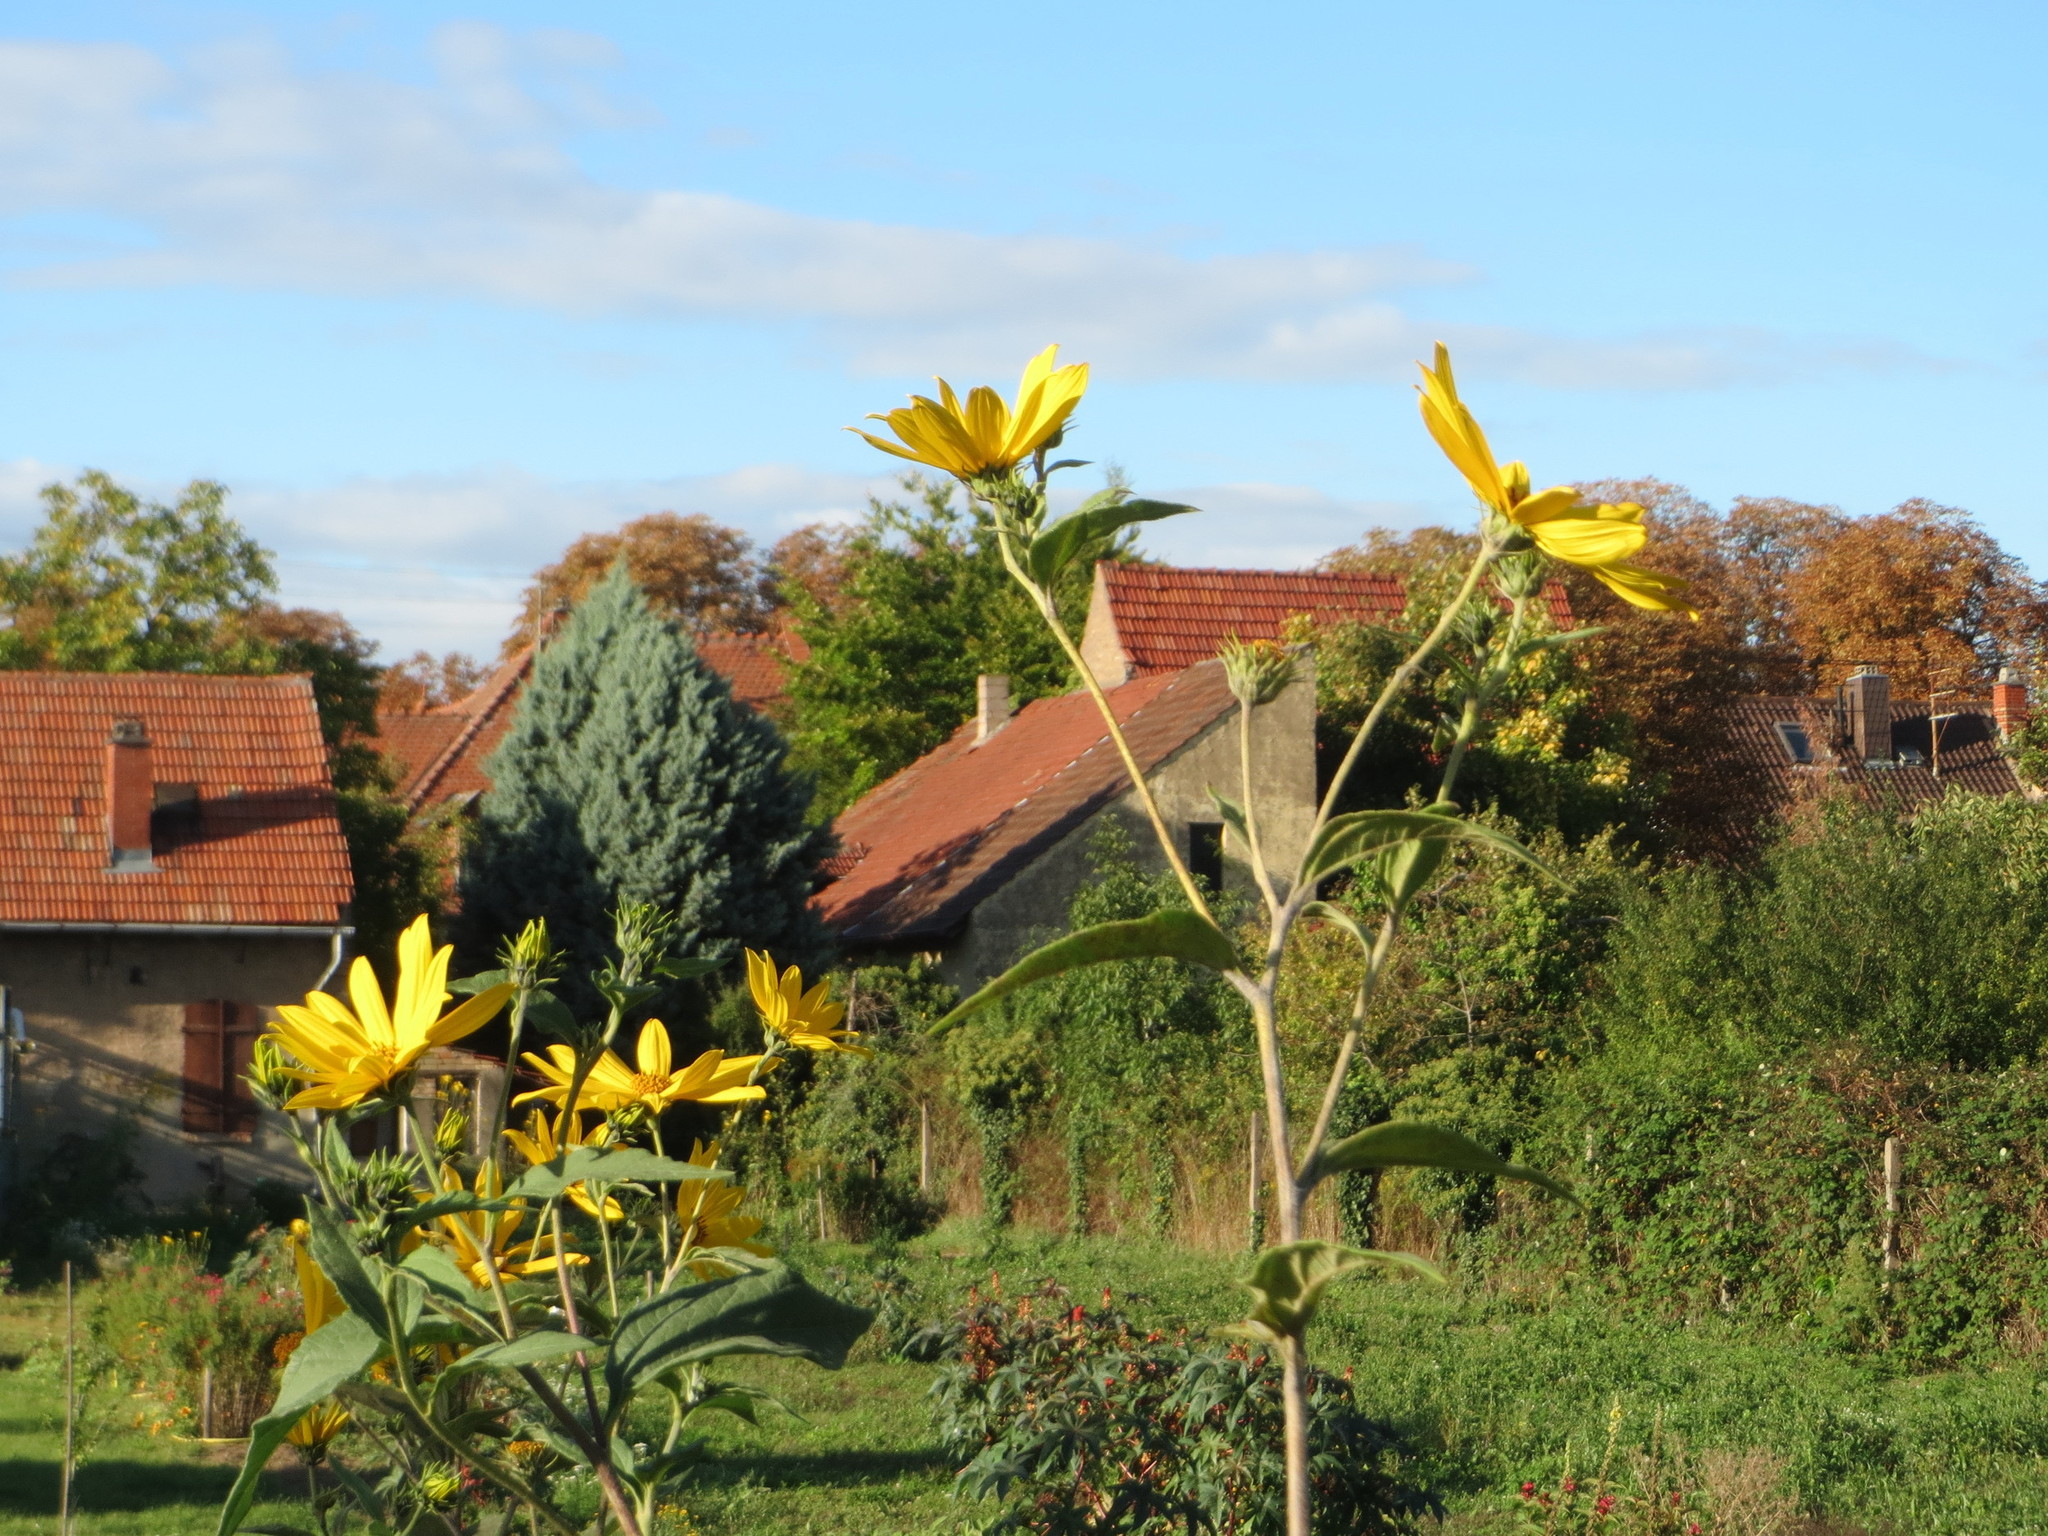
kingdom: Plantae
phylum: Tracheophyta
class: Magnoliopsida
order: Asterales
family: Asteraceae
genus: Helianthus
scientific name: Helianthus tuberosus
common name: Jerusalem artichoke
